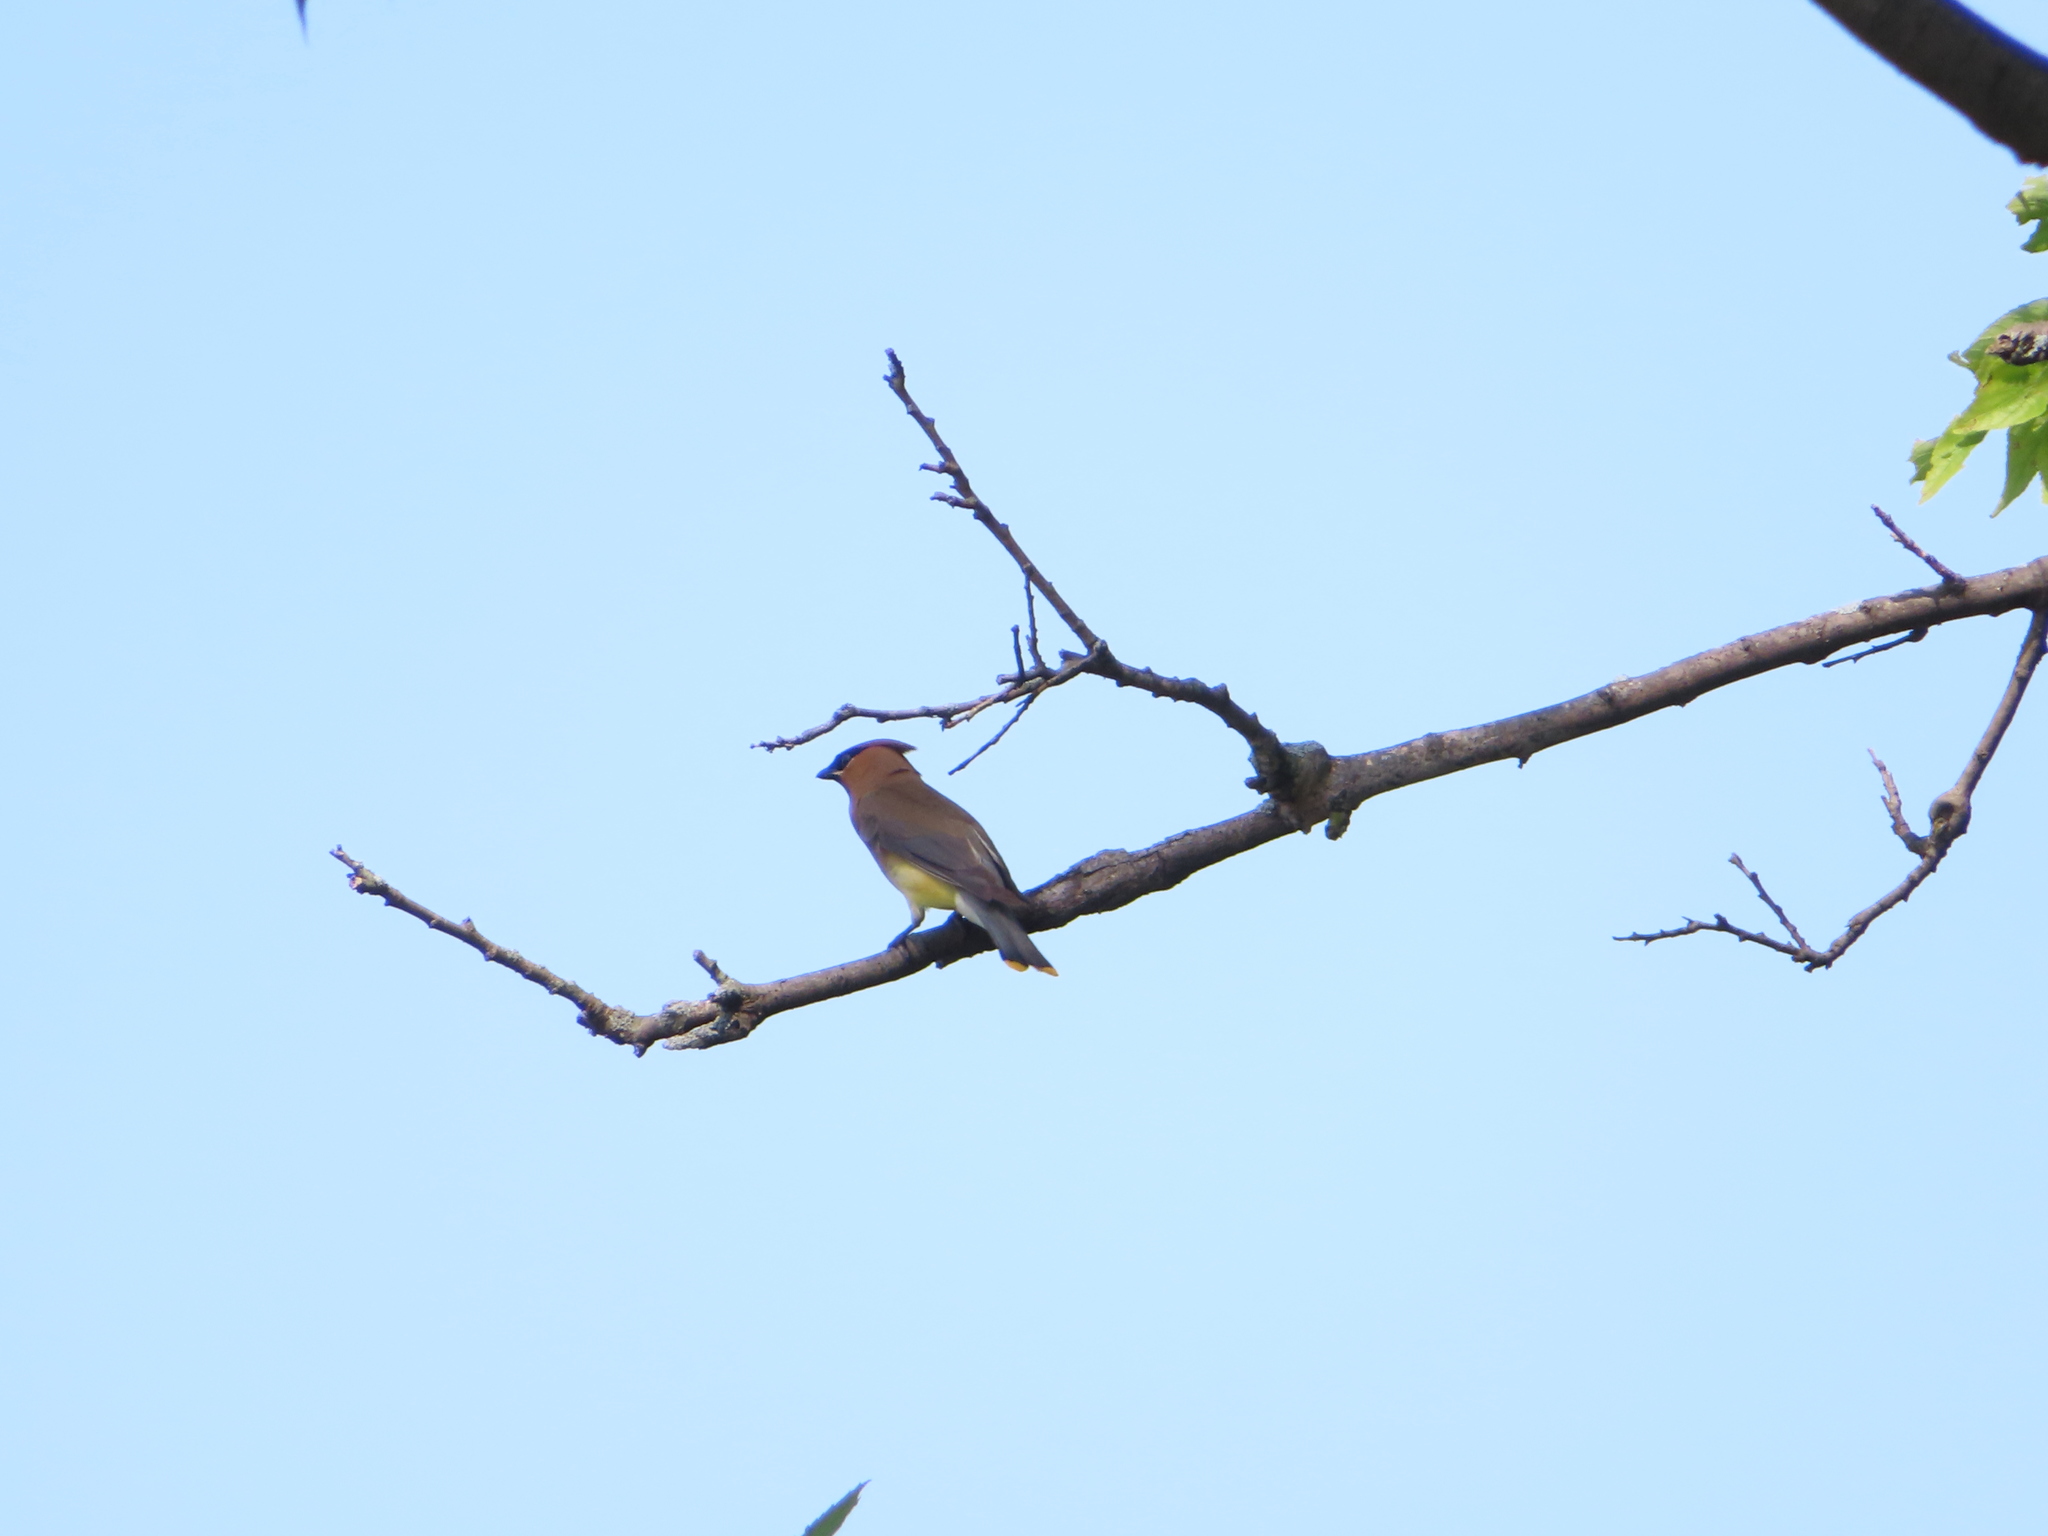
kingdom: Animalia
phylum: Chordata
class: Aves
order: Passeriformes
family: Bombycillidae
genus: Bombycilla
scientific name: Bombycilla cedrorum
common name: Cedar waxwing
